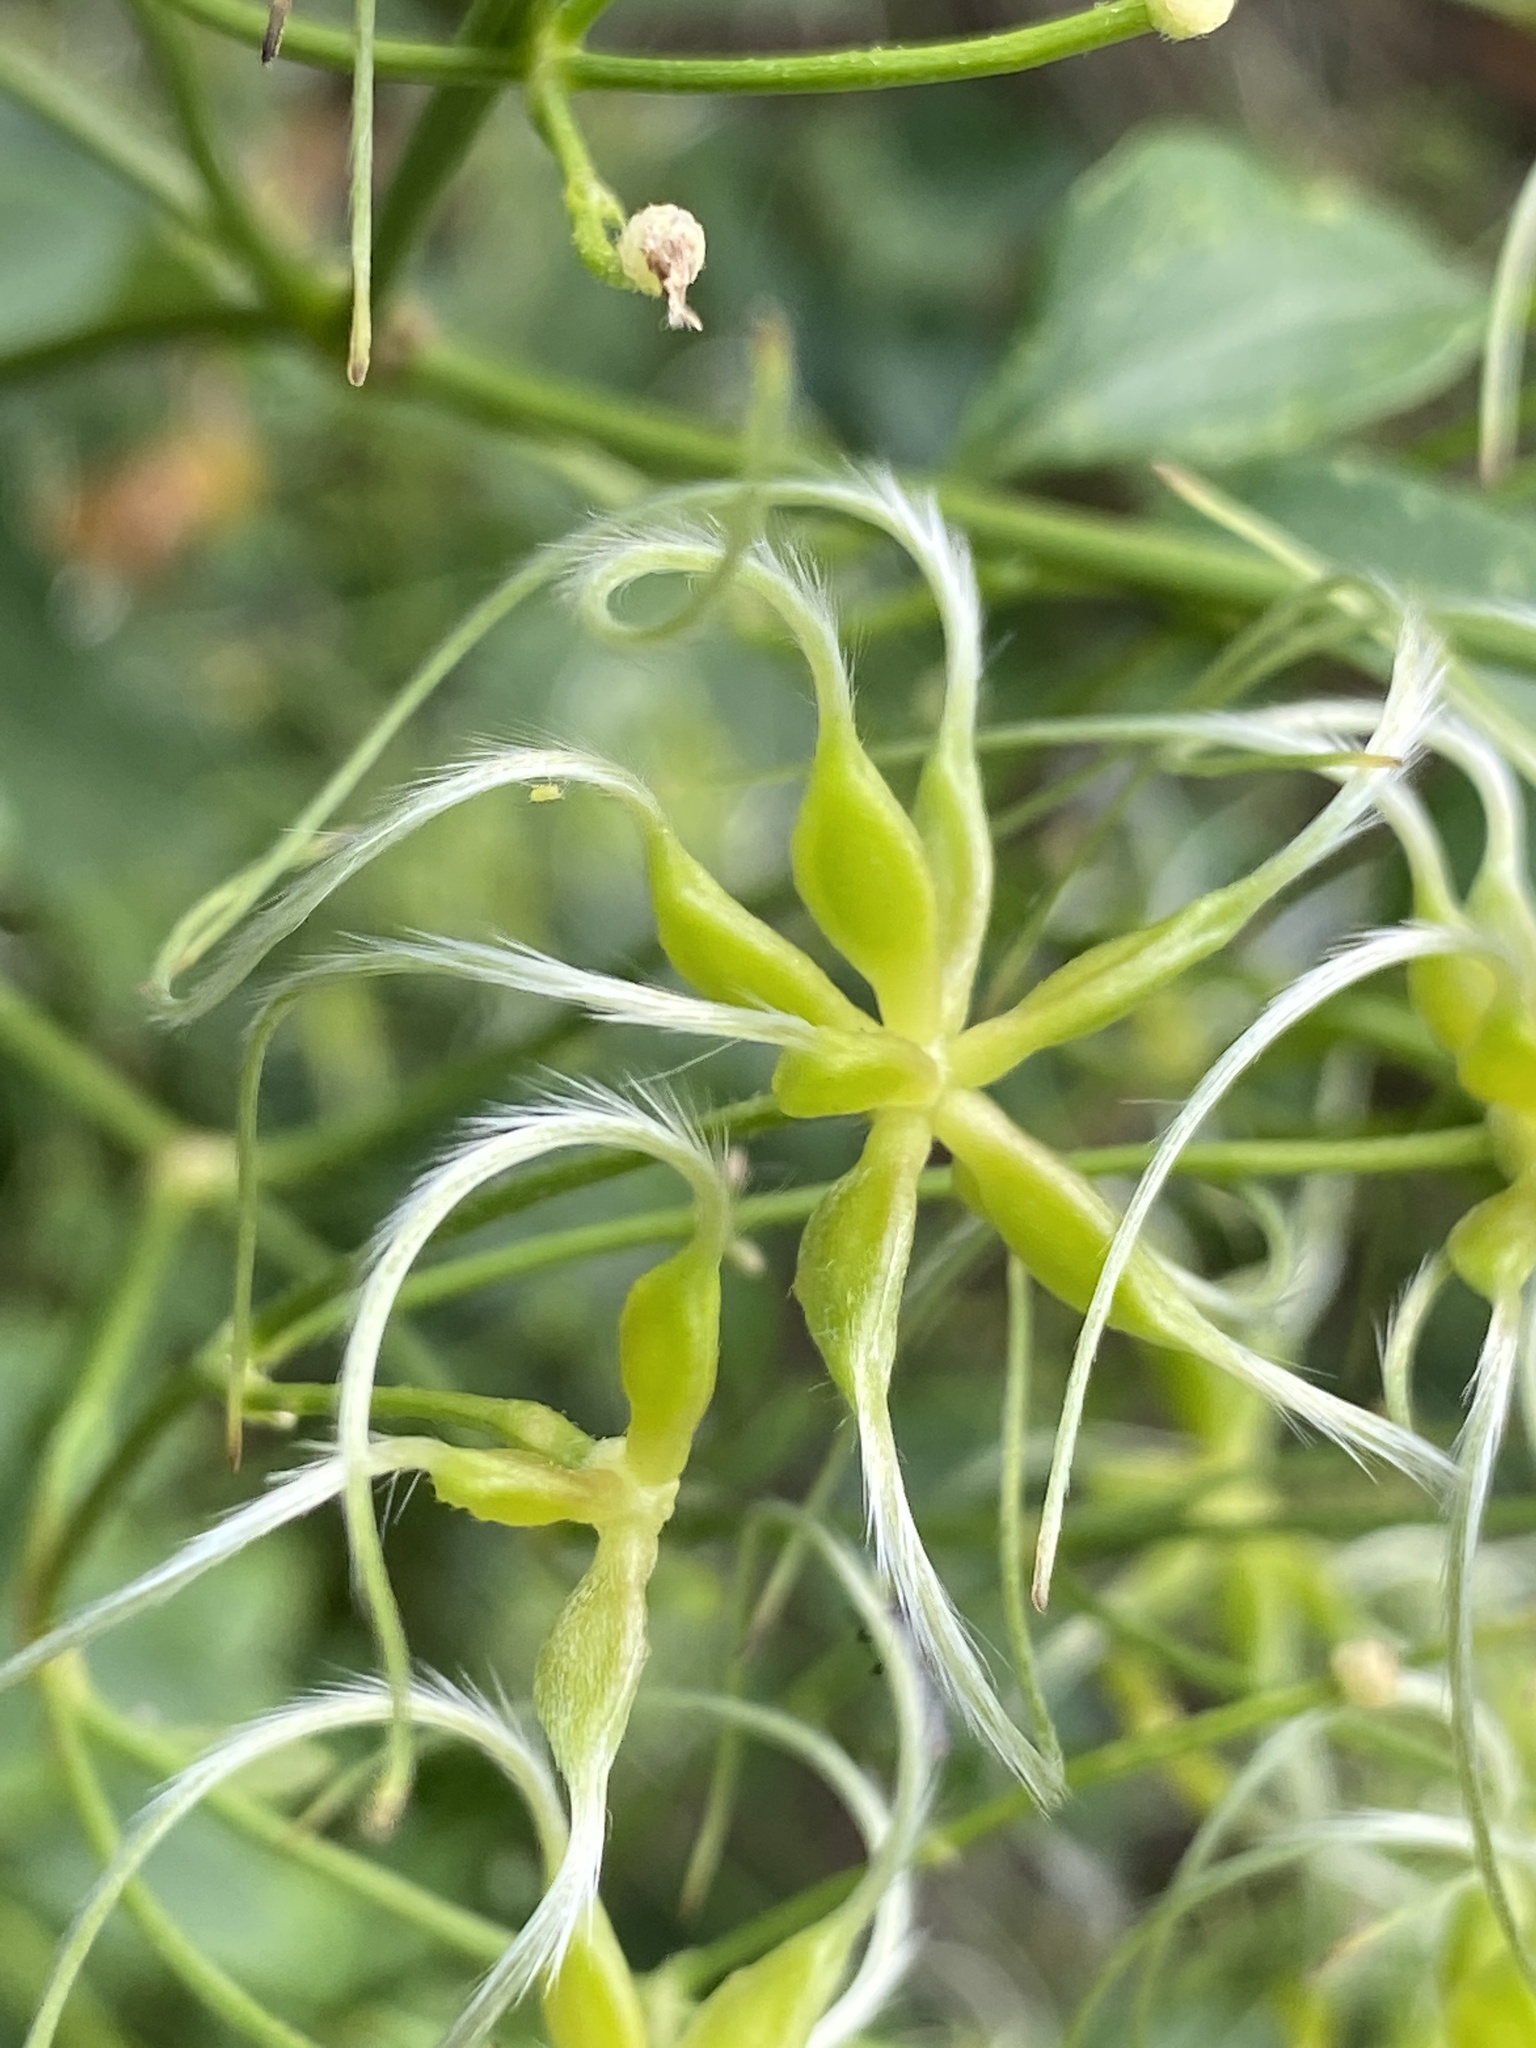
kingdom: Plantae
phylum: Tracheophyta
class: Magnoliopsida
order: Ranunculales
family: Ranunculaceae
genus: Clematis
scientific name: Clematis terniflora
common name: Sweet autumn clematis
